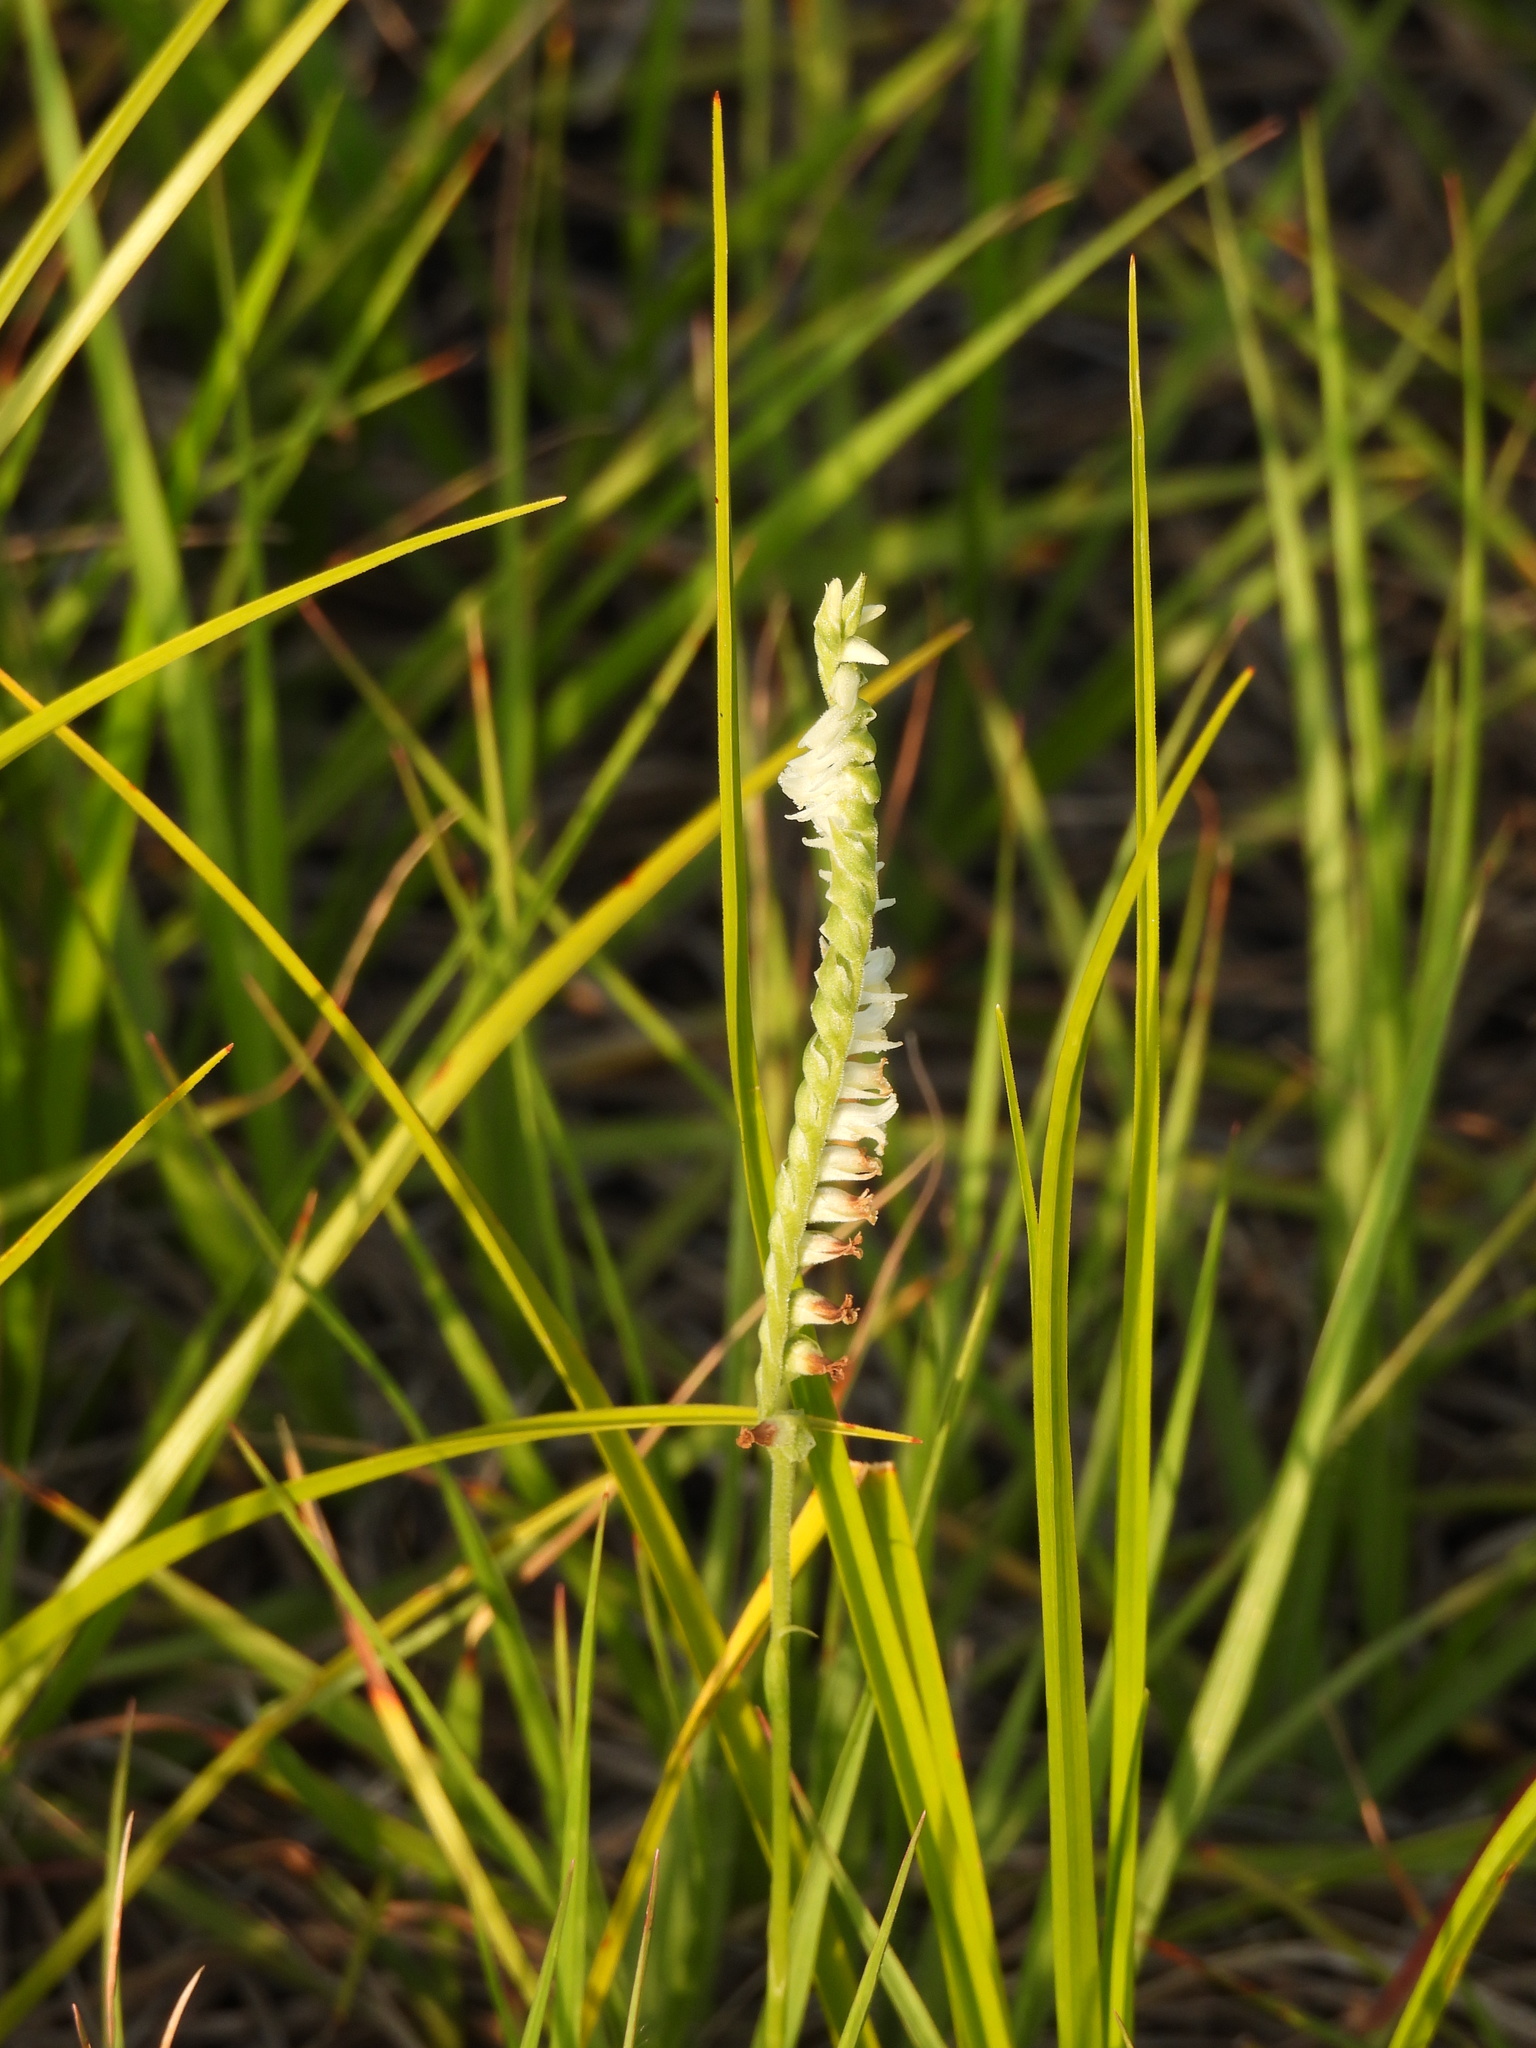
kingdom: Plantae
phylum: Tracheophyta
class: Liliopsida
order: Asparagales
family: Orchidaceae
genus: Spiranthes
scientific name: Spiranthes vernalis
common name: Spring ladies'-tresses
